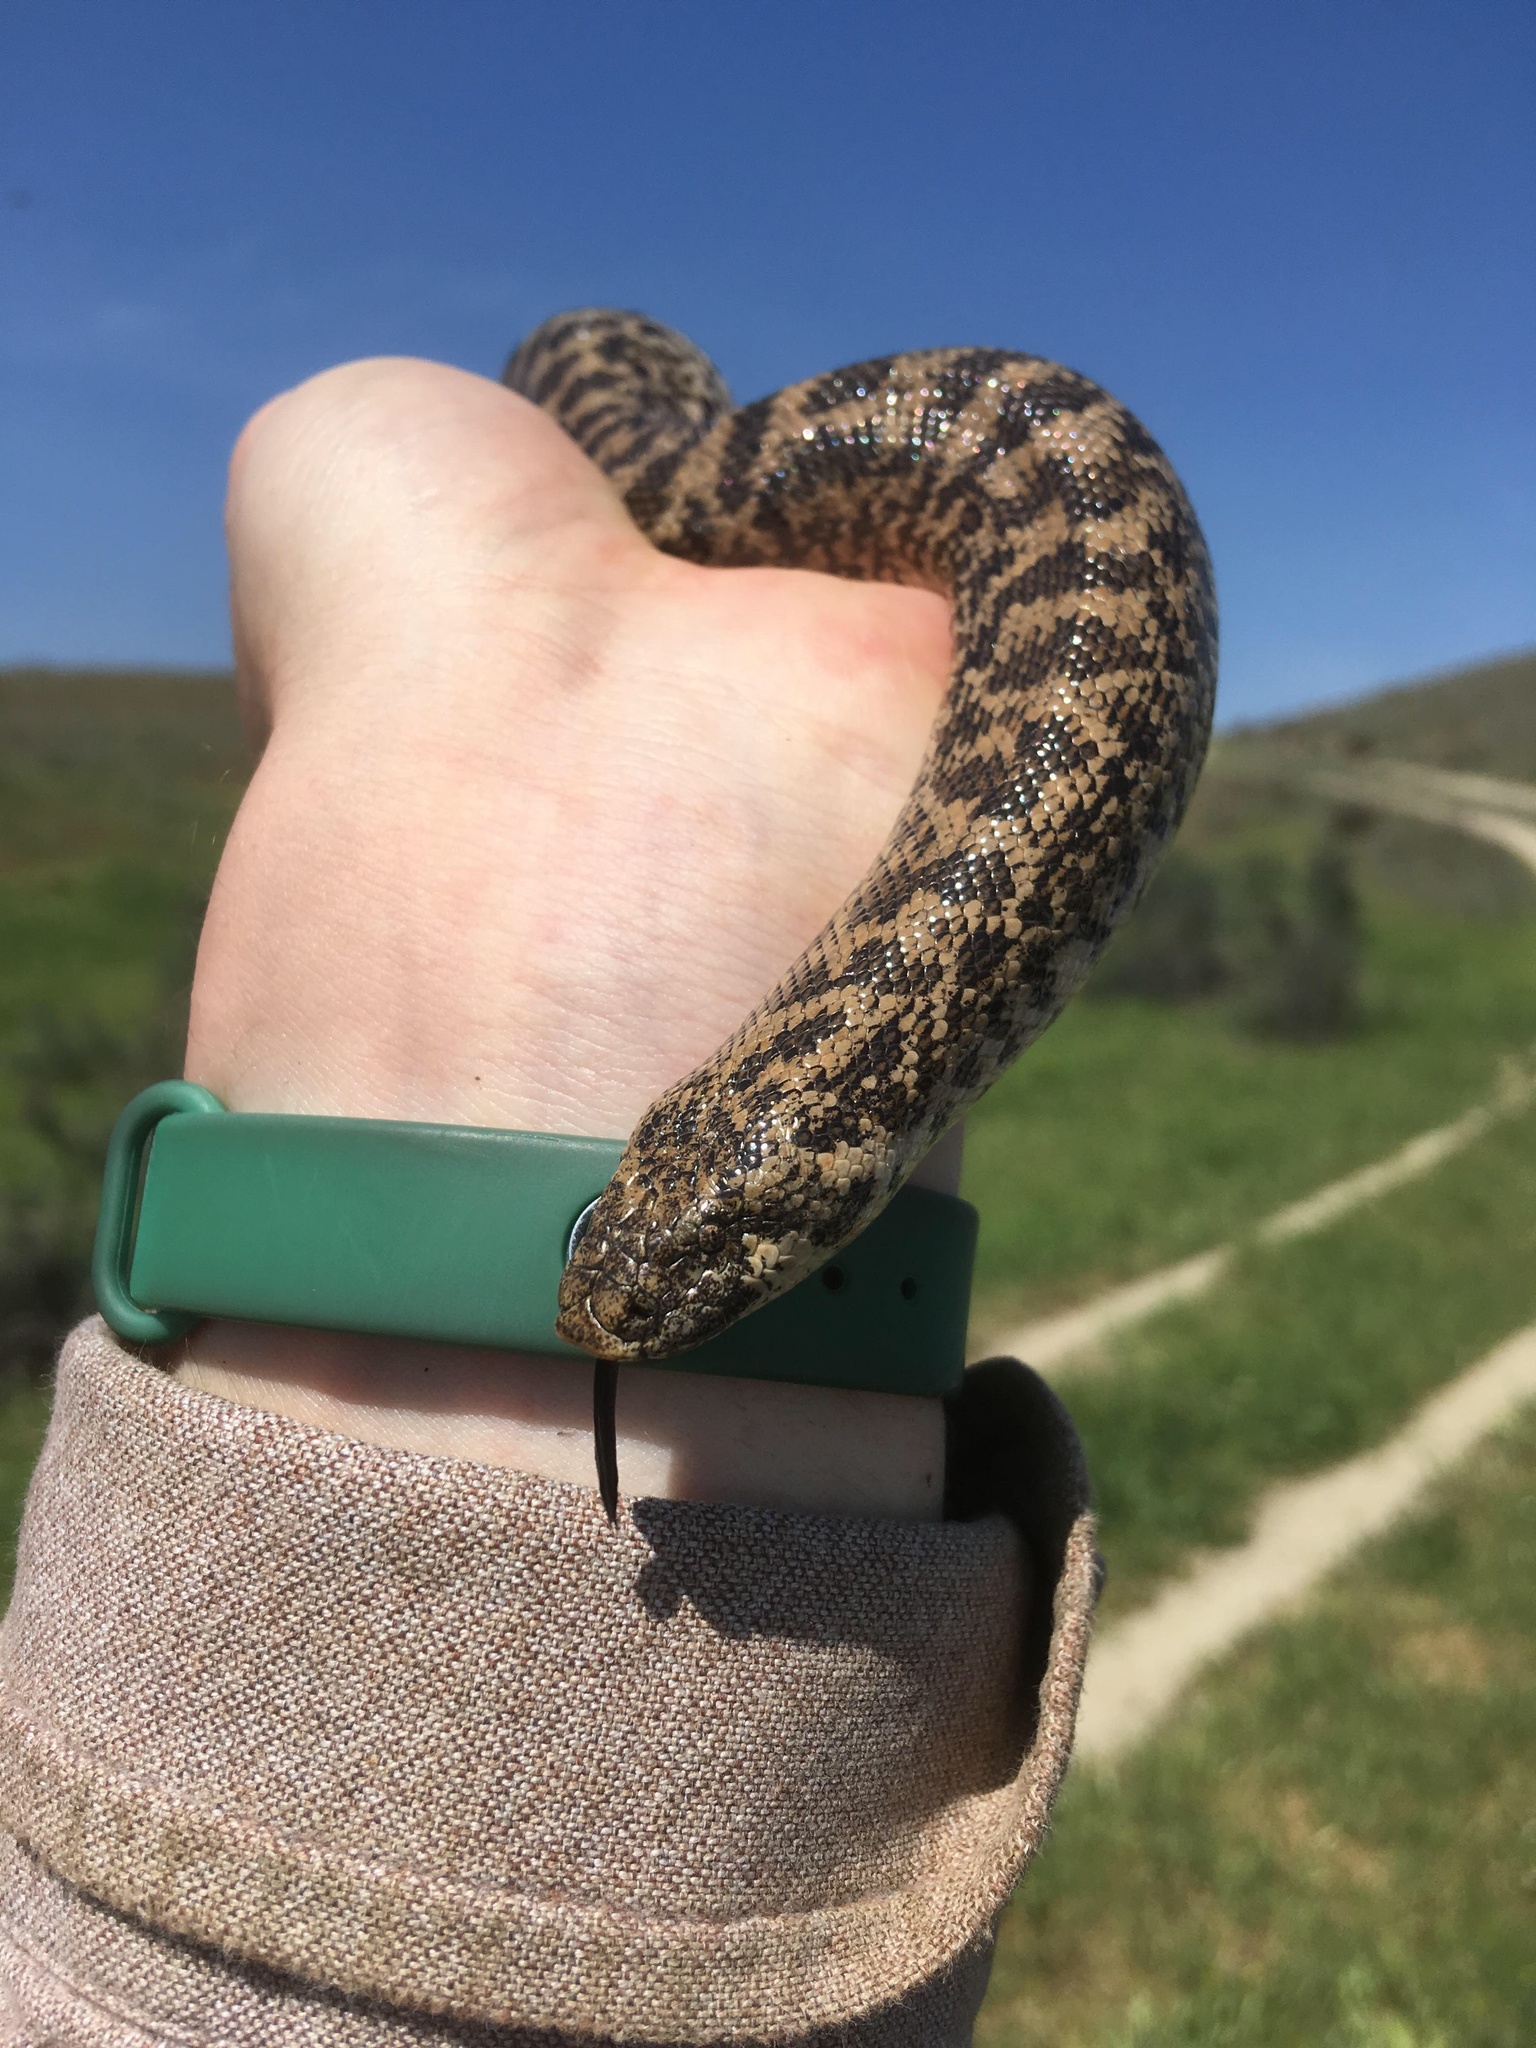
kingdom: Animalia
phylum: Chordata
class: Squamata
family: Boidae
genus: Eryx
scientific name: Eryx jaculus
